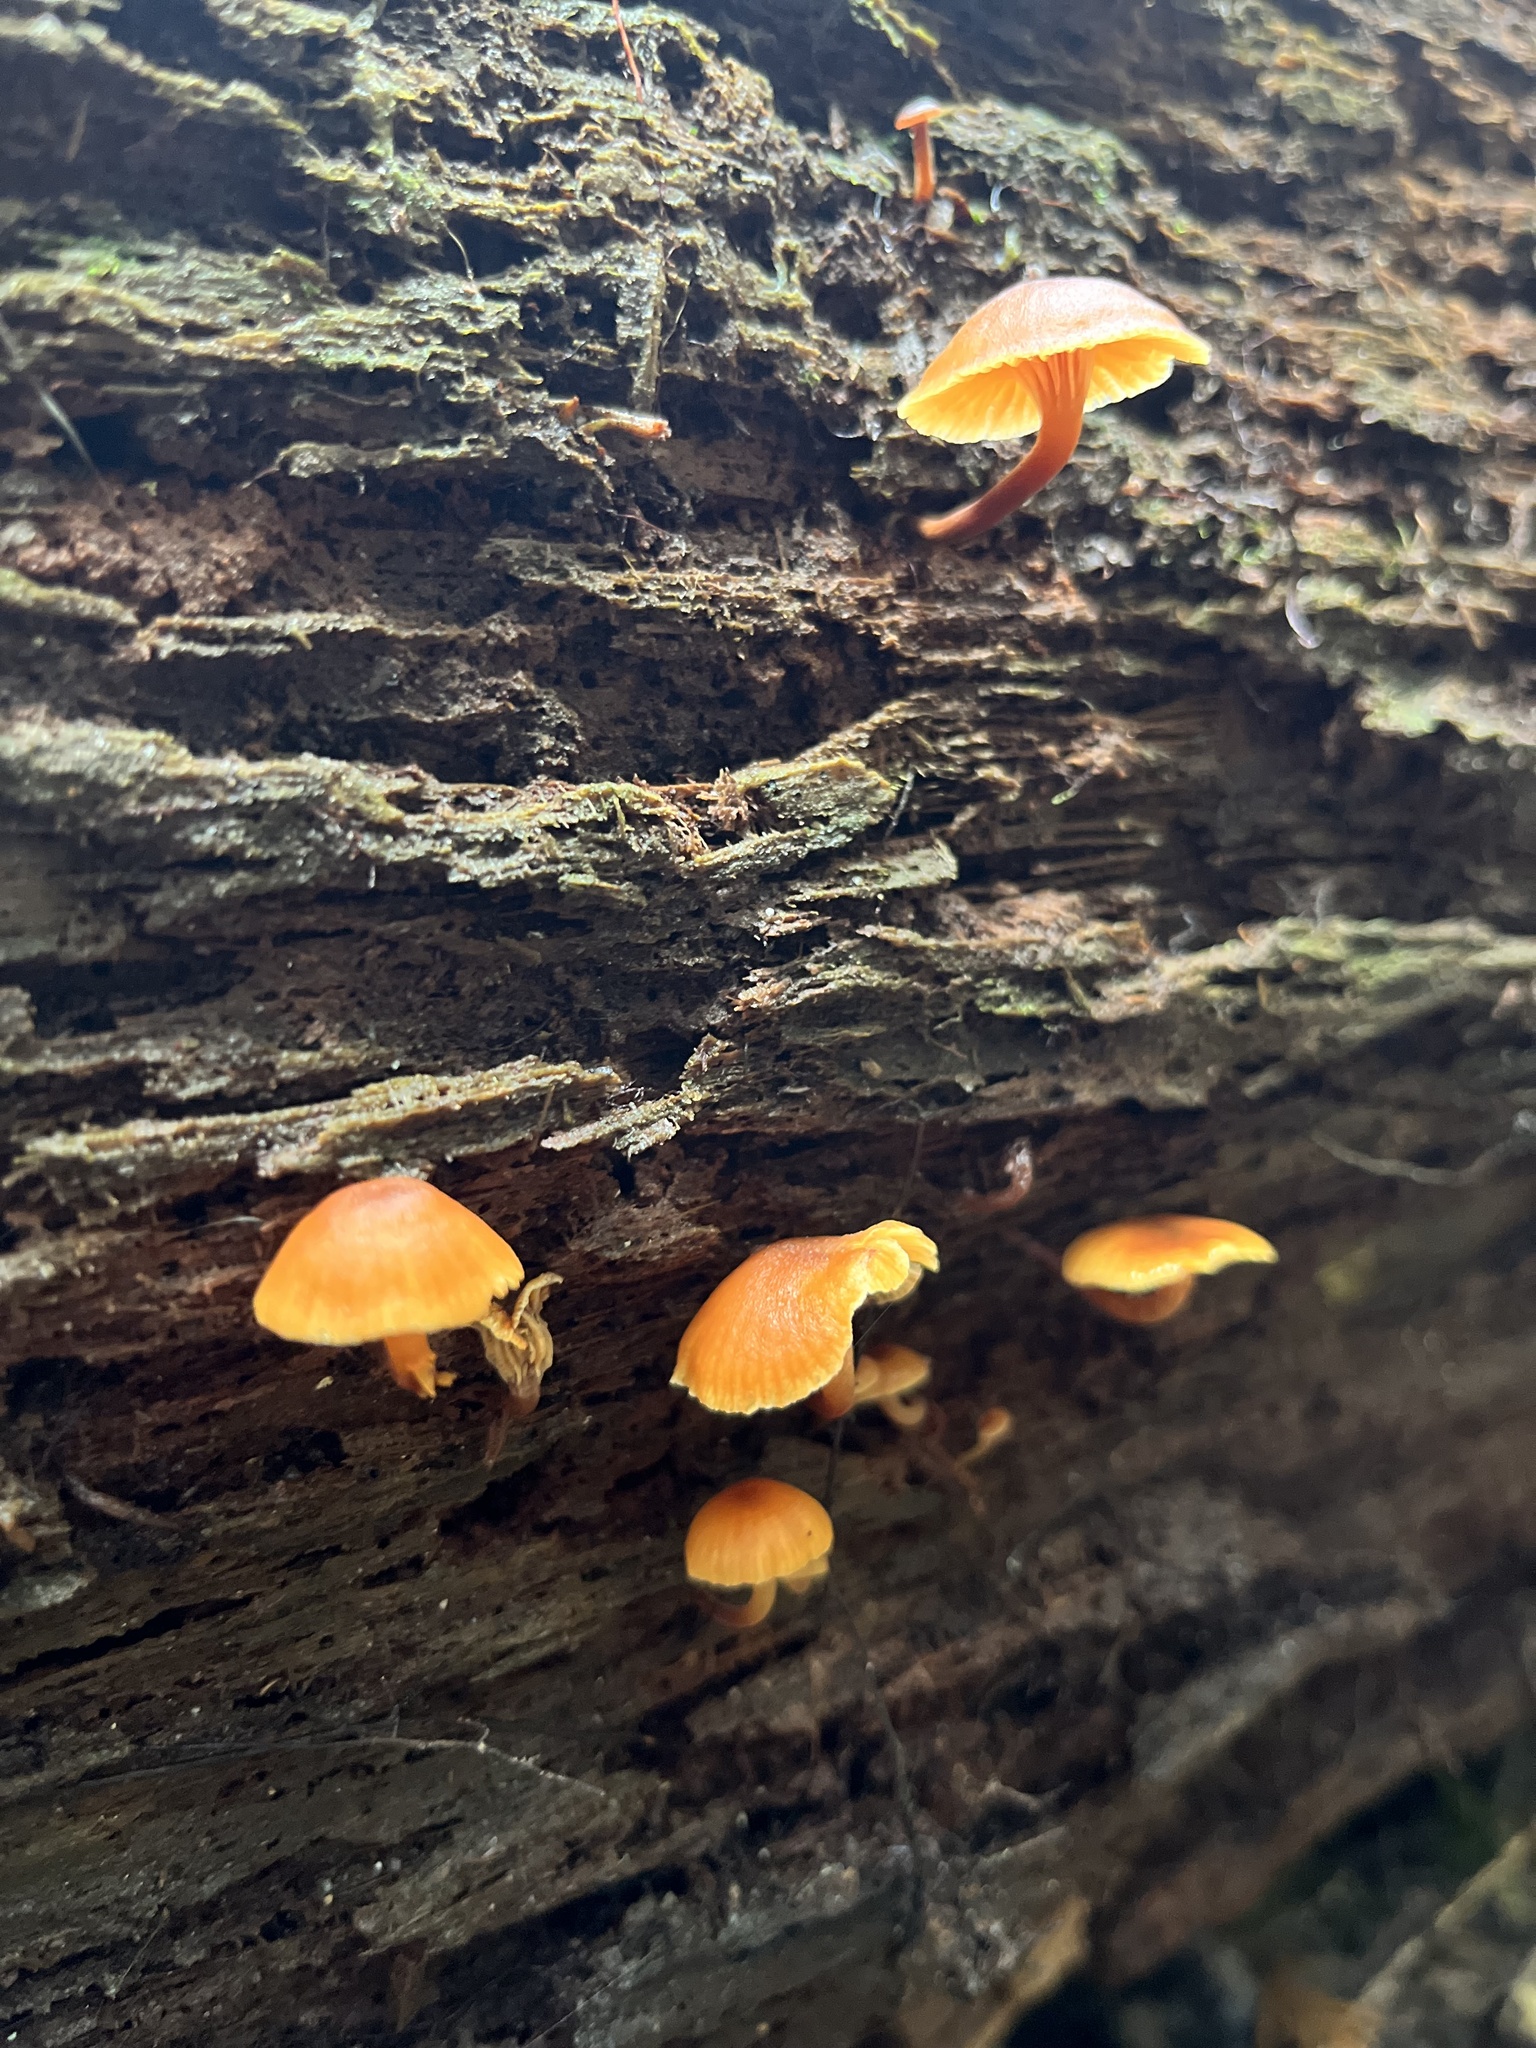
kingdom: Fungi
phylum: Basidiomycota
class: Agaricomycetes
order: Agaricales
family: Mycenaceae
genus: Xeromphalina
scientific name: Xeromphalina campanella
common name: Pinewood gingertail
